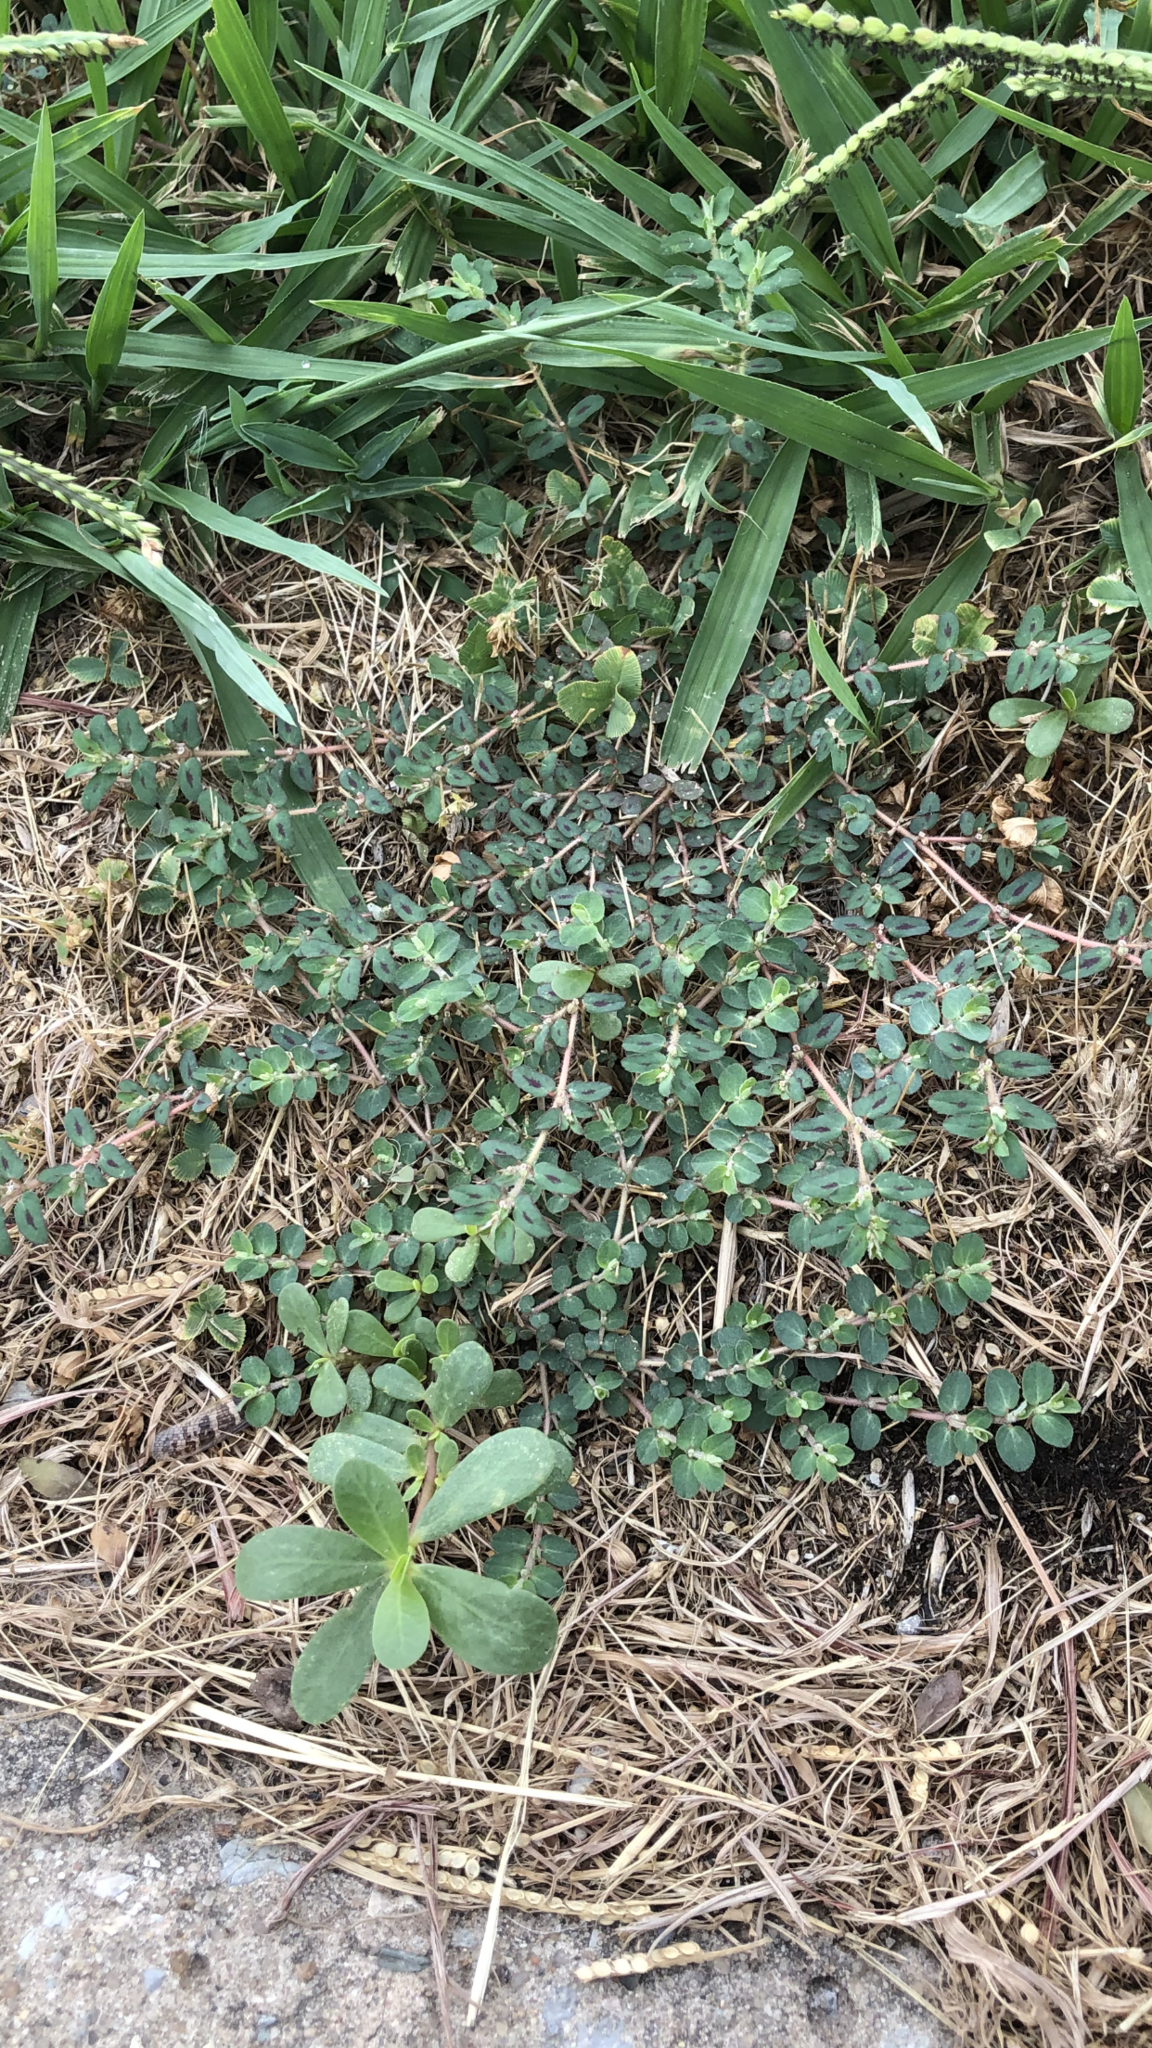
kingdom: Plantae
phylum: Tracheophyta
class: Magnoliopsida
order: Malpighiales
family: Euphorbiaceae
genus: Euphorbia
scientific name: Euphorbia maculata
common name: Spotted spurge
